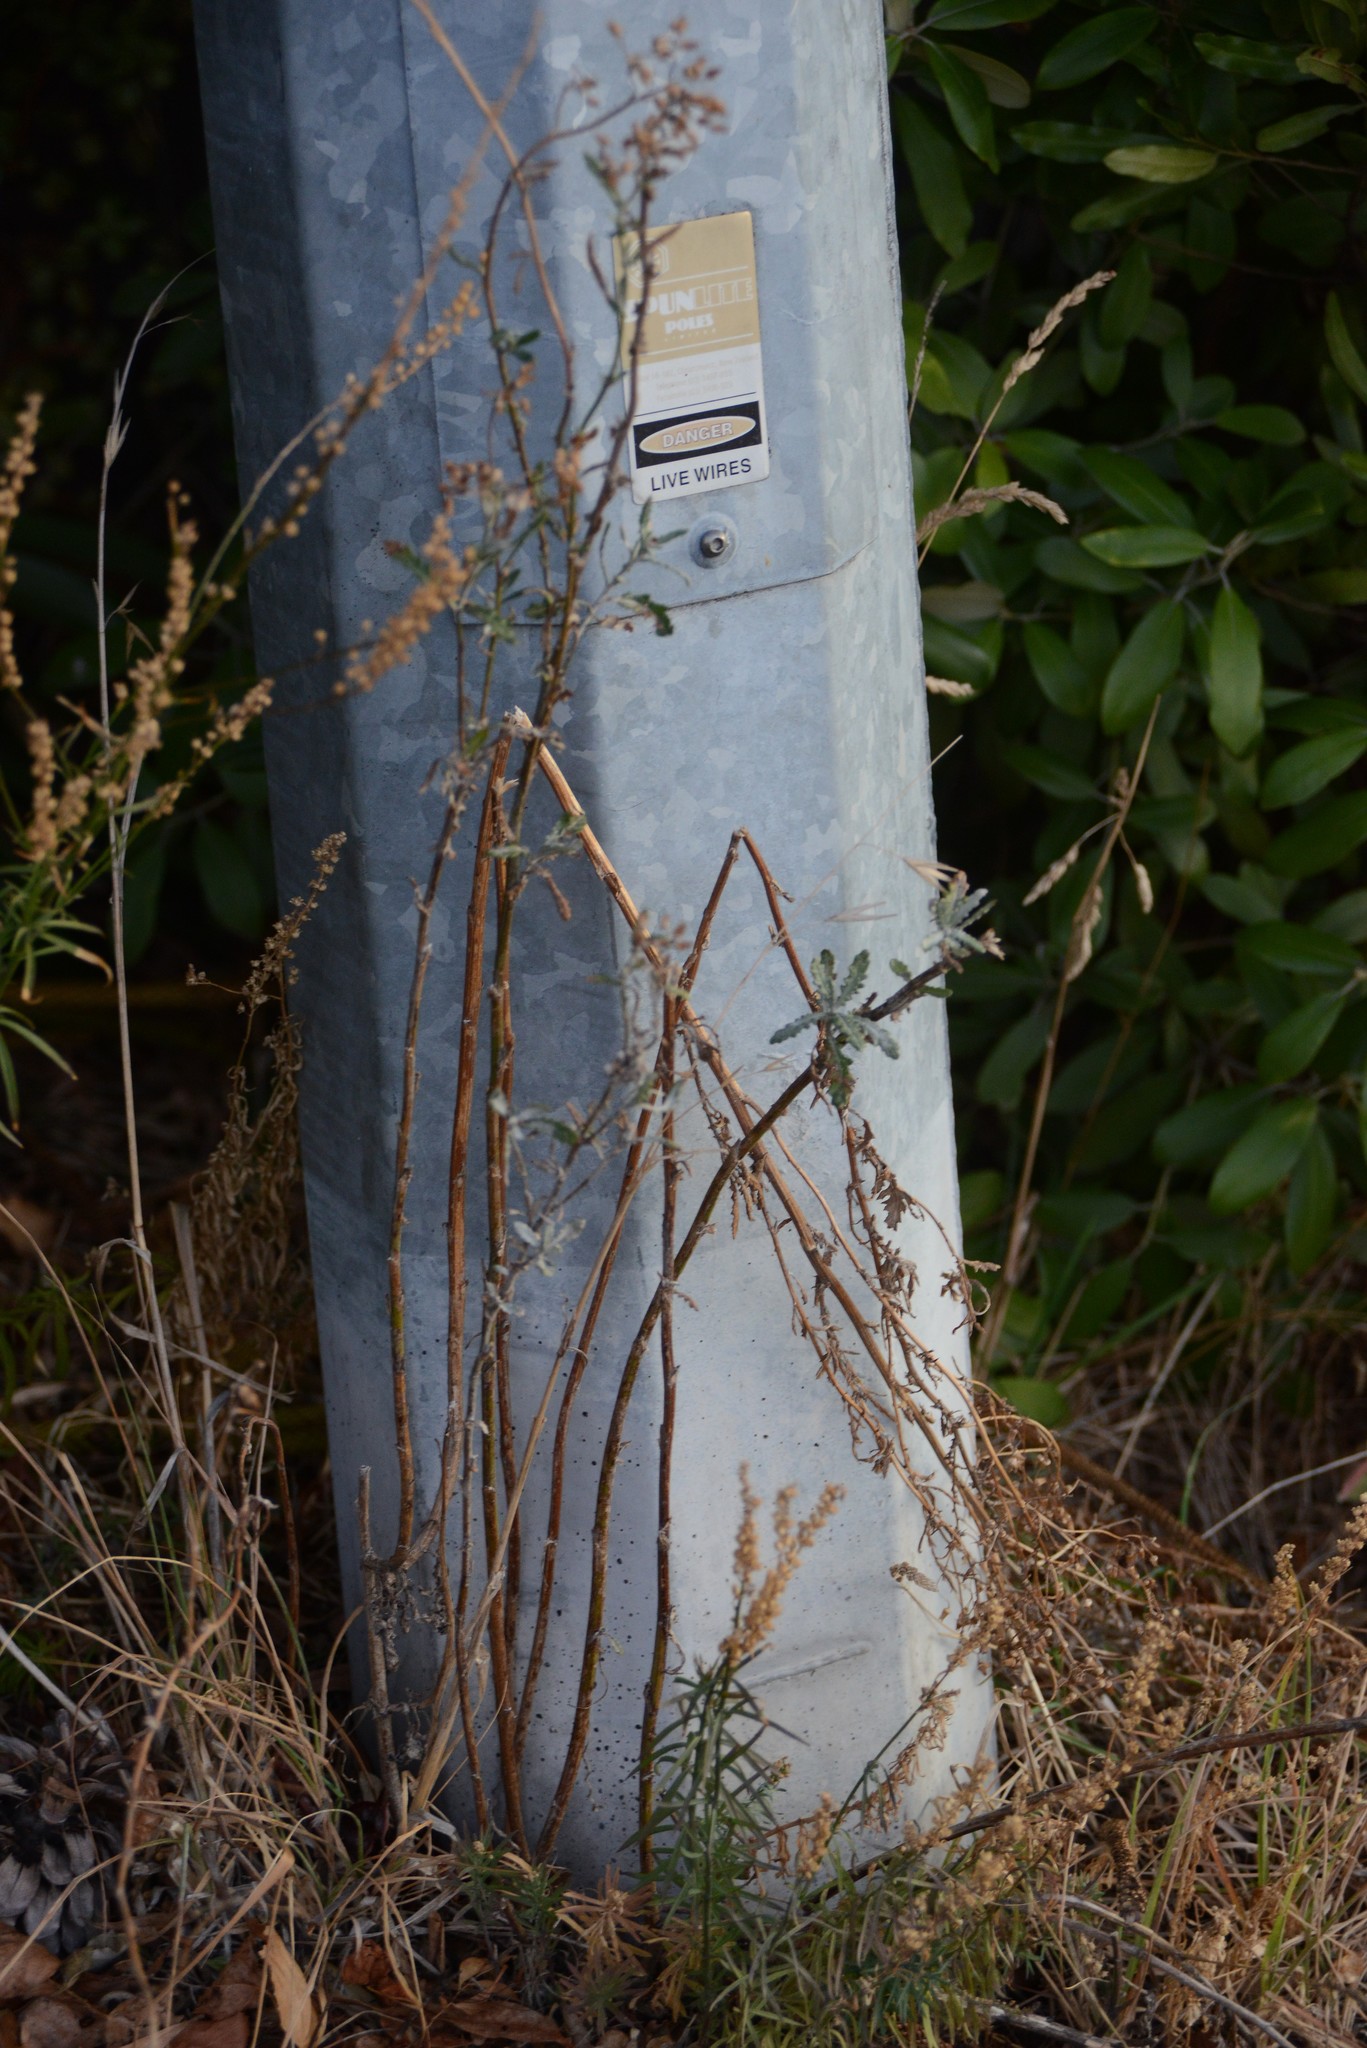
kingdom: Plantae
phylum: Tracheophyta
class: Magnoliopsida
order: Asterales
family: Asteraceae
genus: Senecio
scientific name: Senecio glomeratus
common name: Cutleaf burnweed
